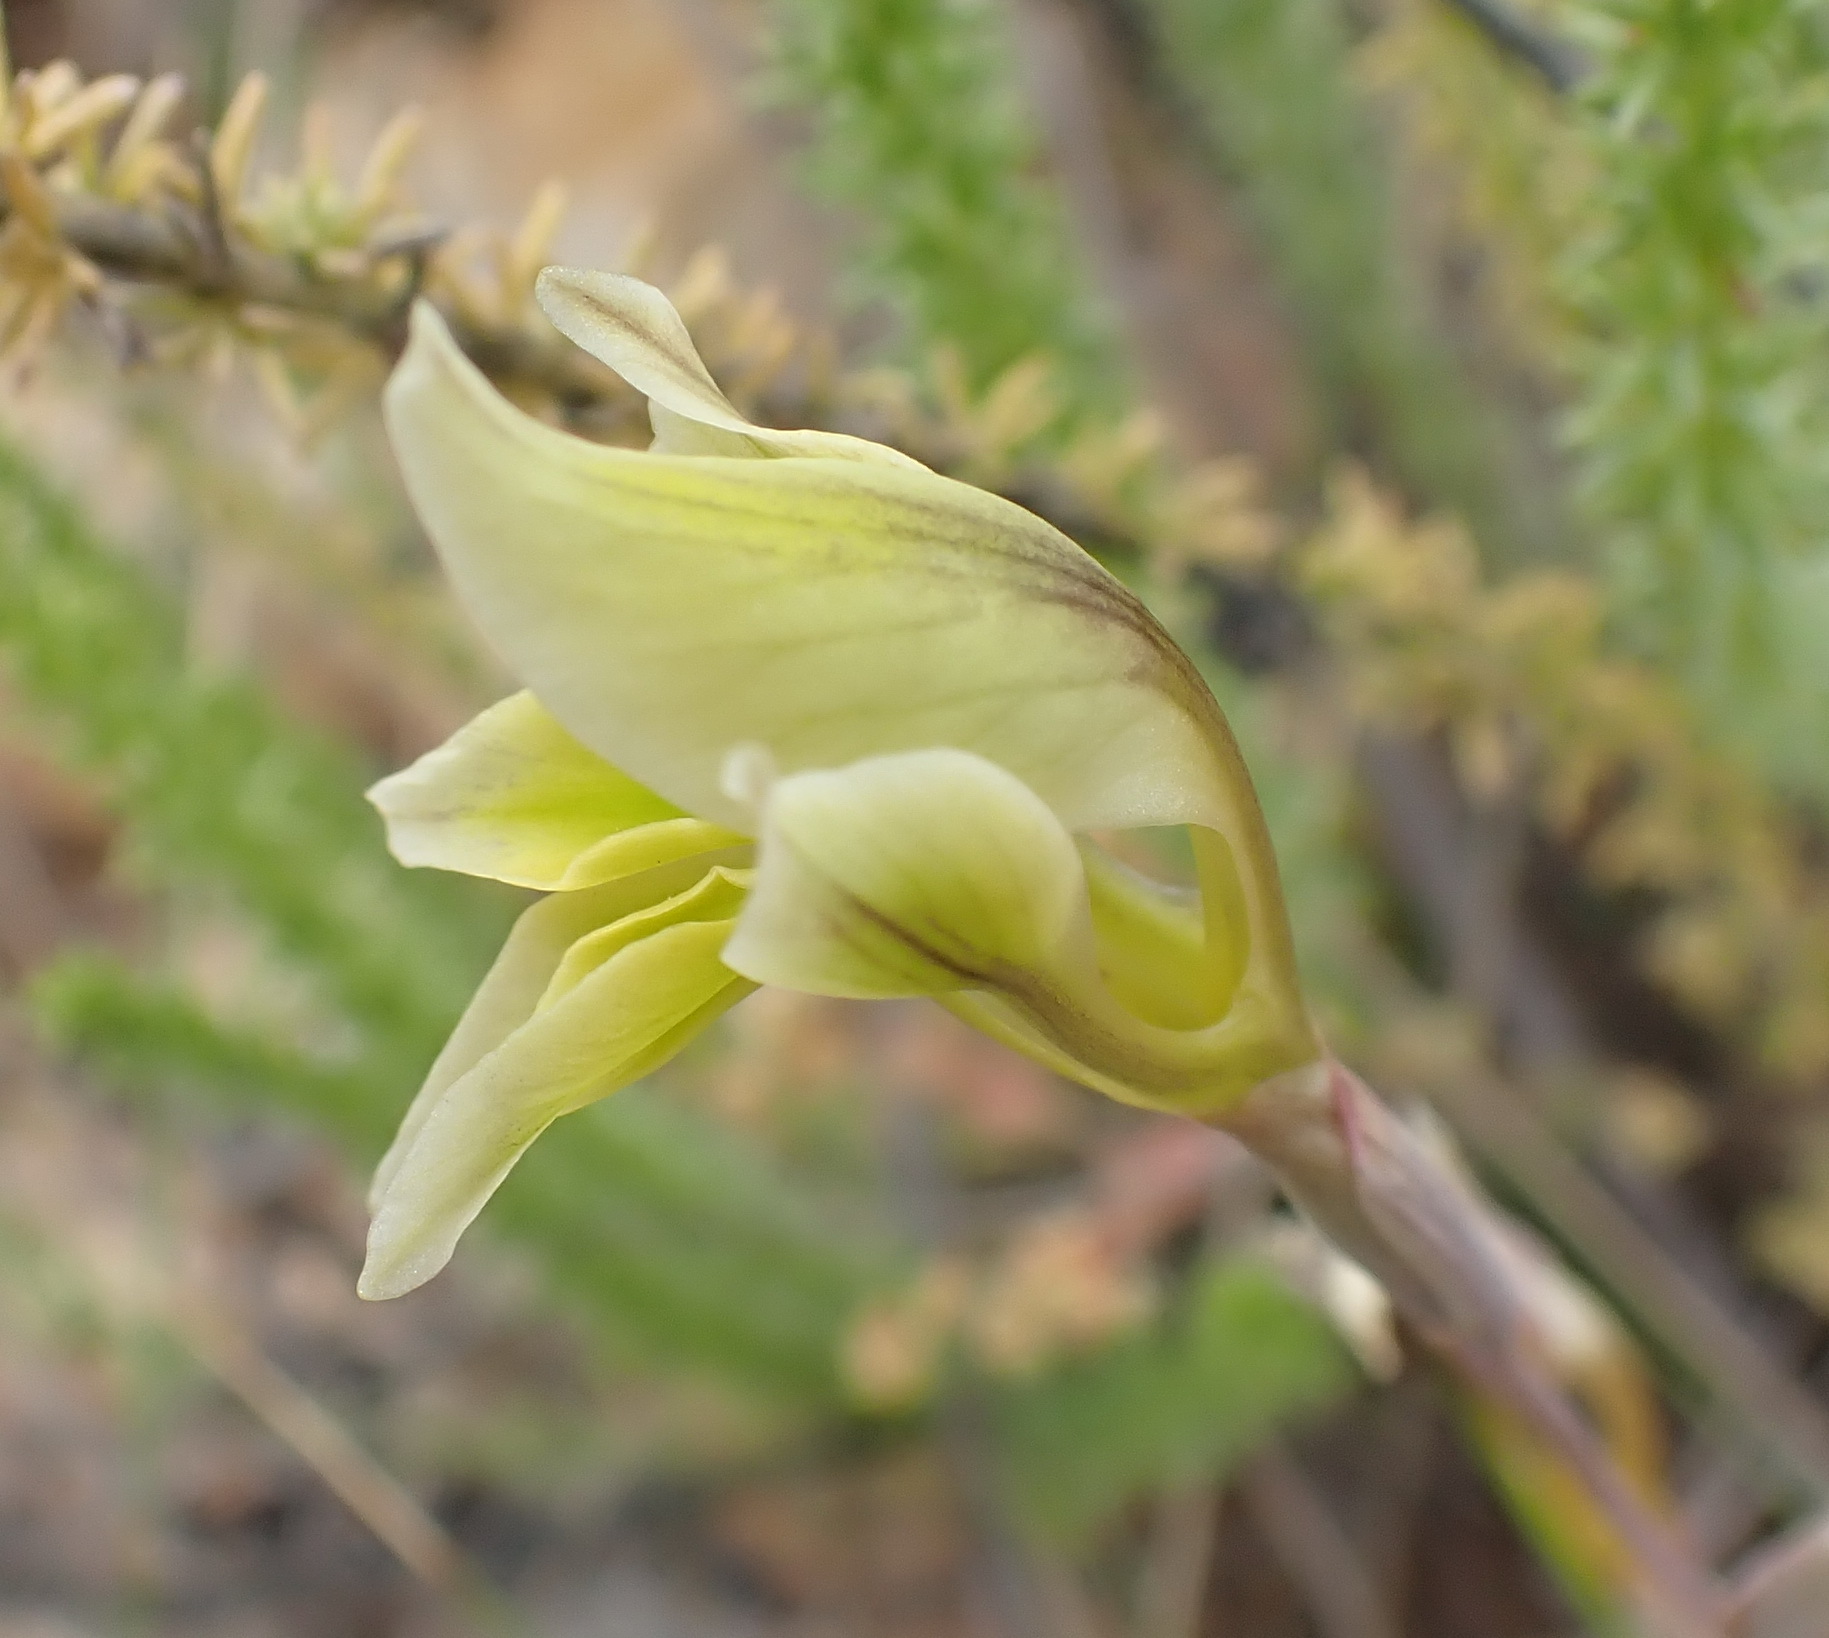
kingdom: Plantae
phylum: Tracheophyta
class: Liliopsida
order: Asparagales
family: Iridaceae
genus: Gladiolus
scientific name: Gladiolus permeabilis
